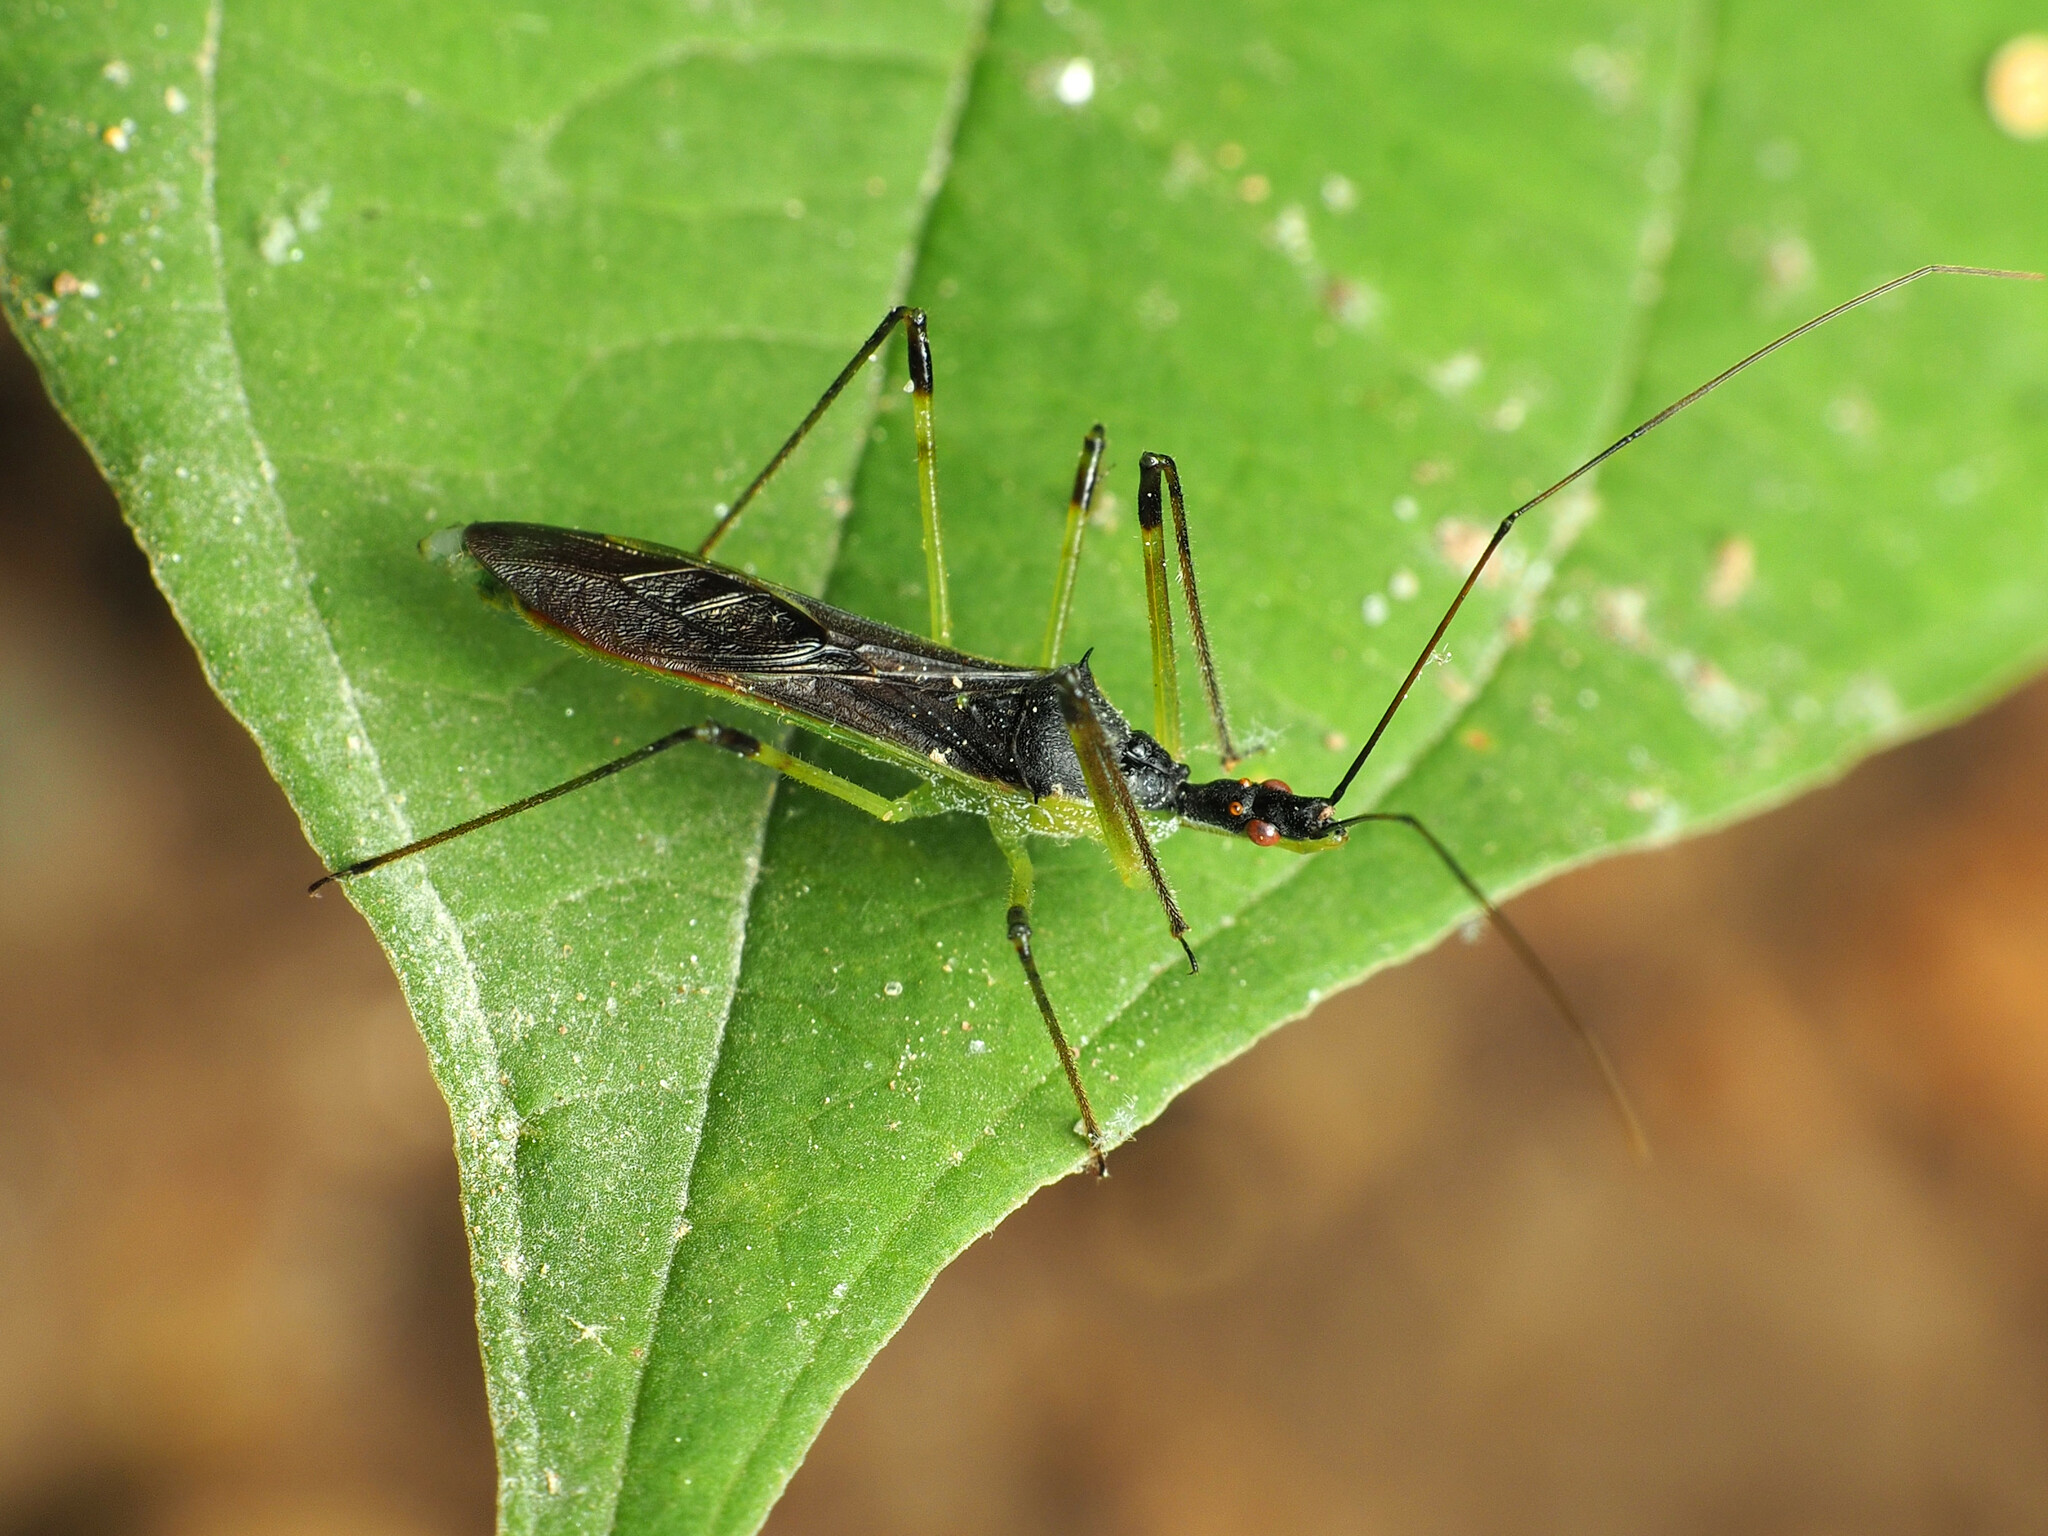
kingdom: Animalia
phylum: Arthropoda
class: Insecta
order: Hemiptera
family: Reduviidae
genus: Zelus
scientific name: Zelus luridus
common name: Pale green assassin bug
